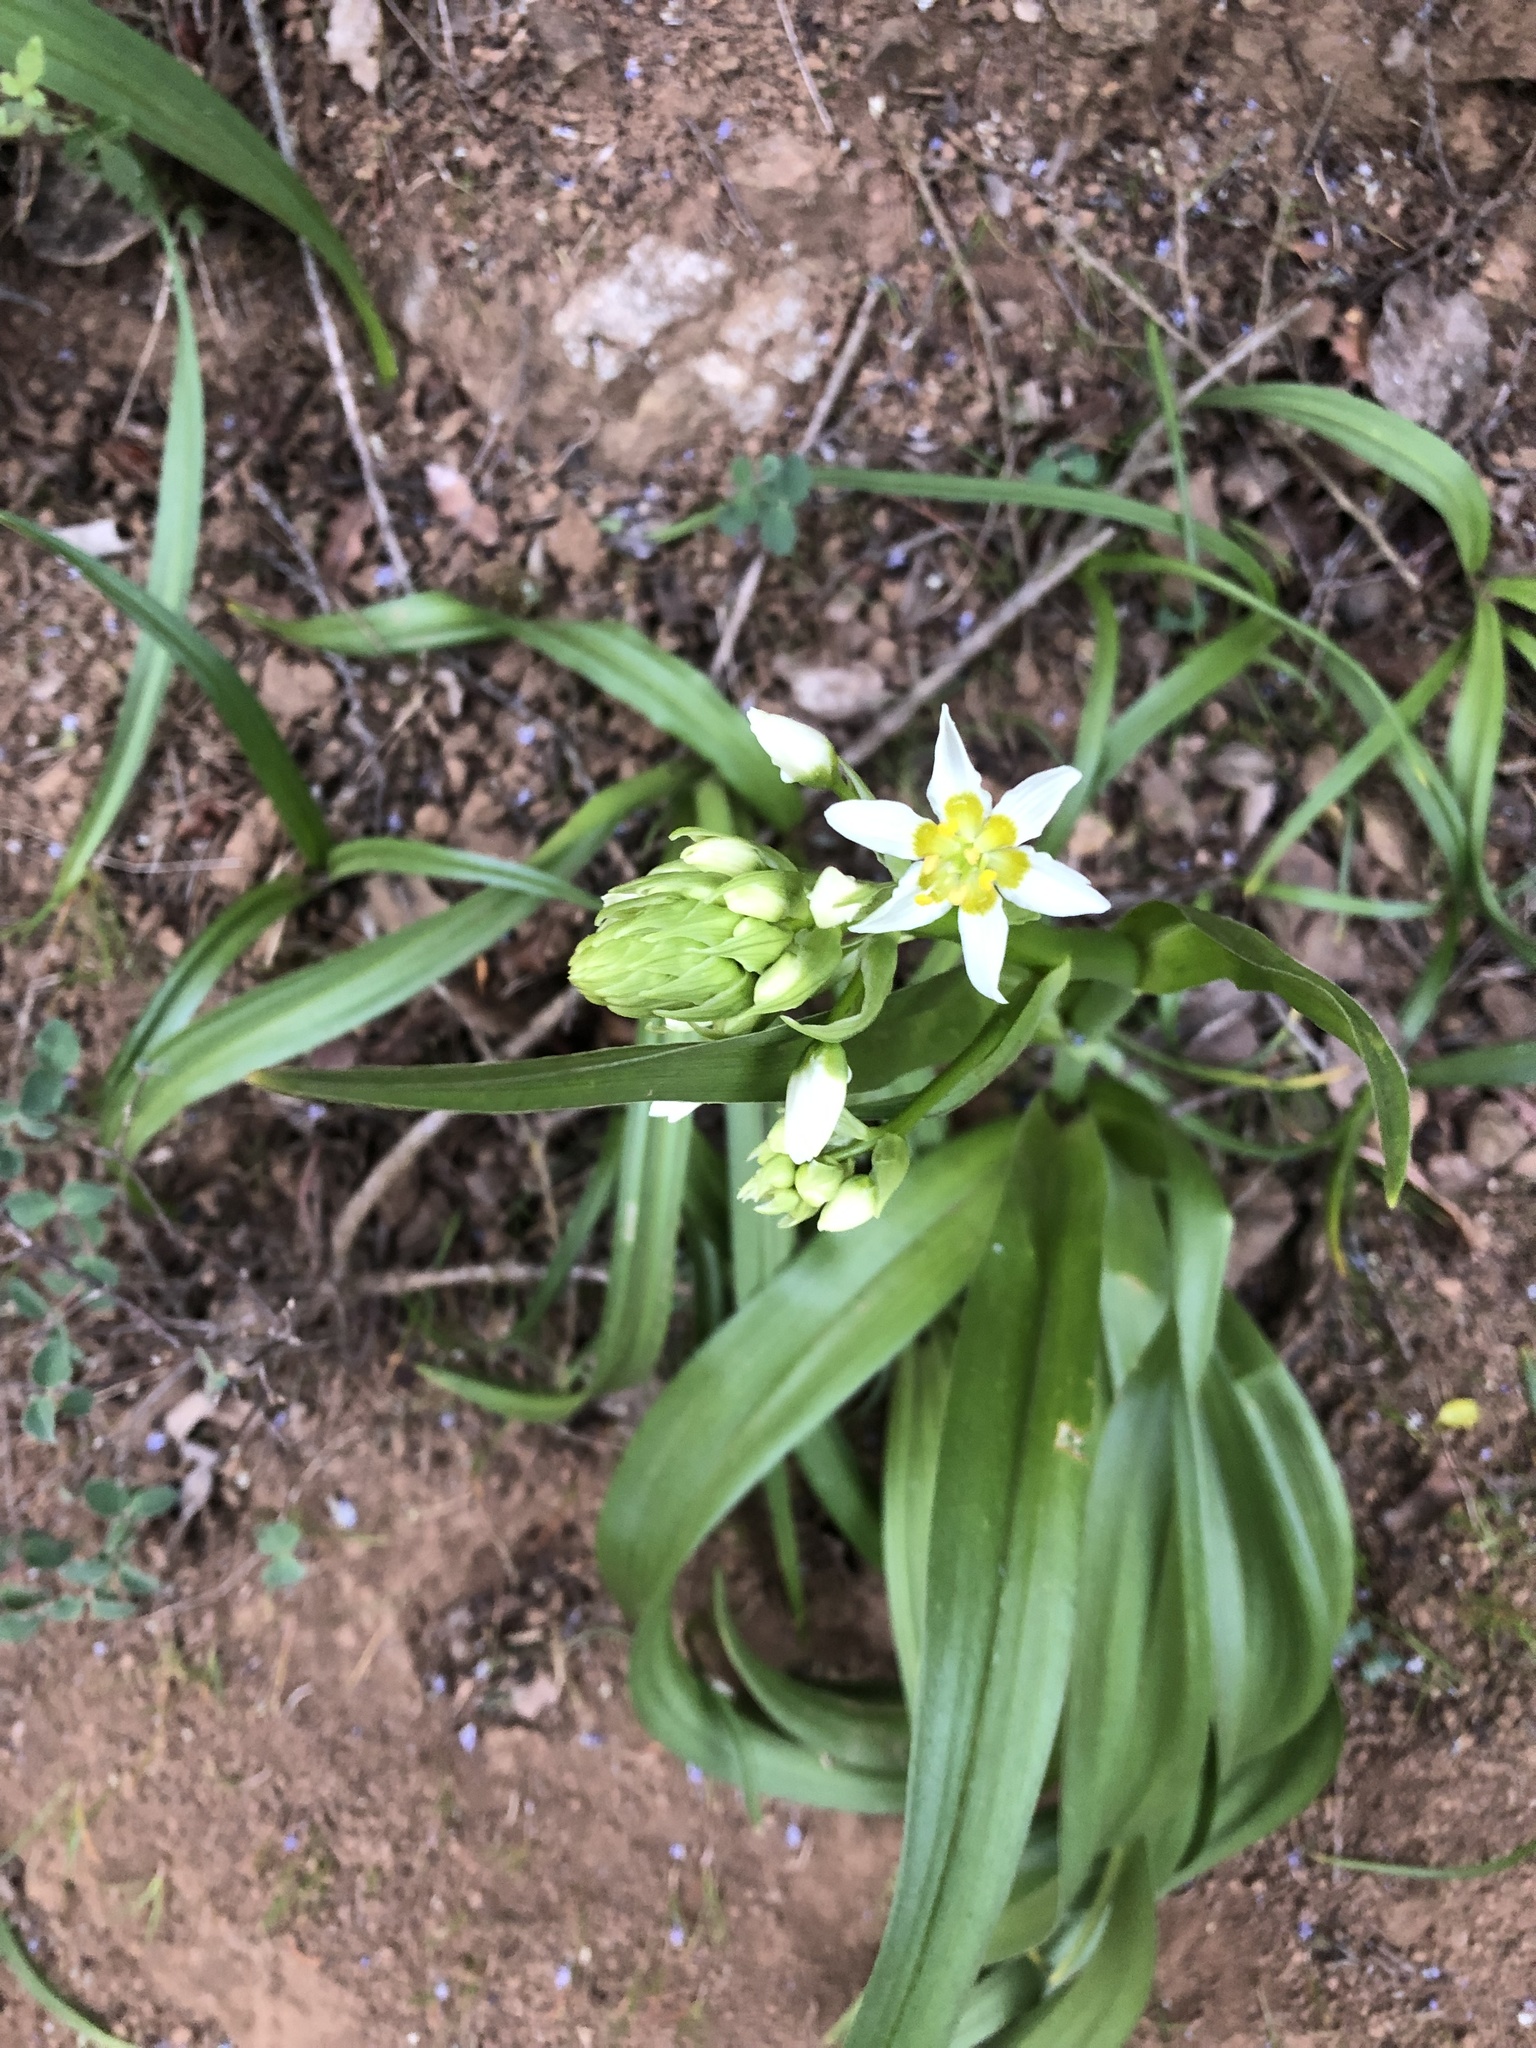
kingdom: Plantae
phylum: Tracheophyta
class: Liliopsida
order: Liliales
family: Melanthiaceae
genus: Toxicoscordion
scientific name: Toxicoscordion fremontii
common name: Fremont's death camas
